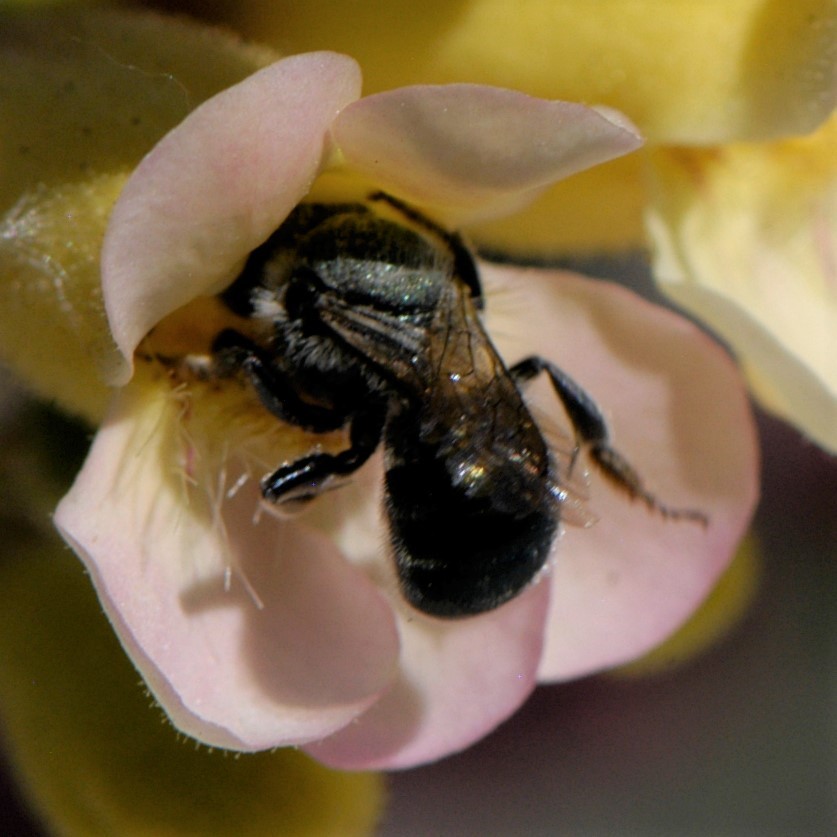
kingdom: Animalia
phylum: Arthropoda
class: Insecta
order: Hymenoptera
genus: Melanosmia
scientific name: Melanosmia
